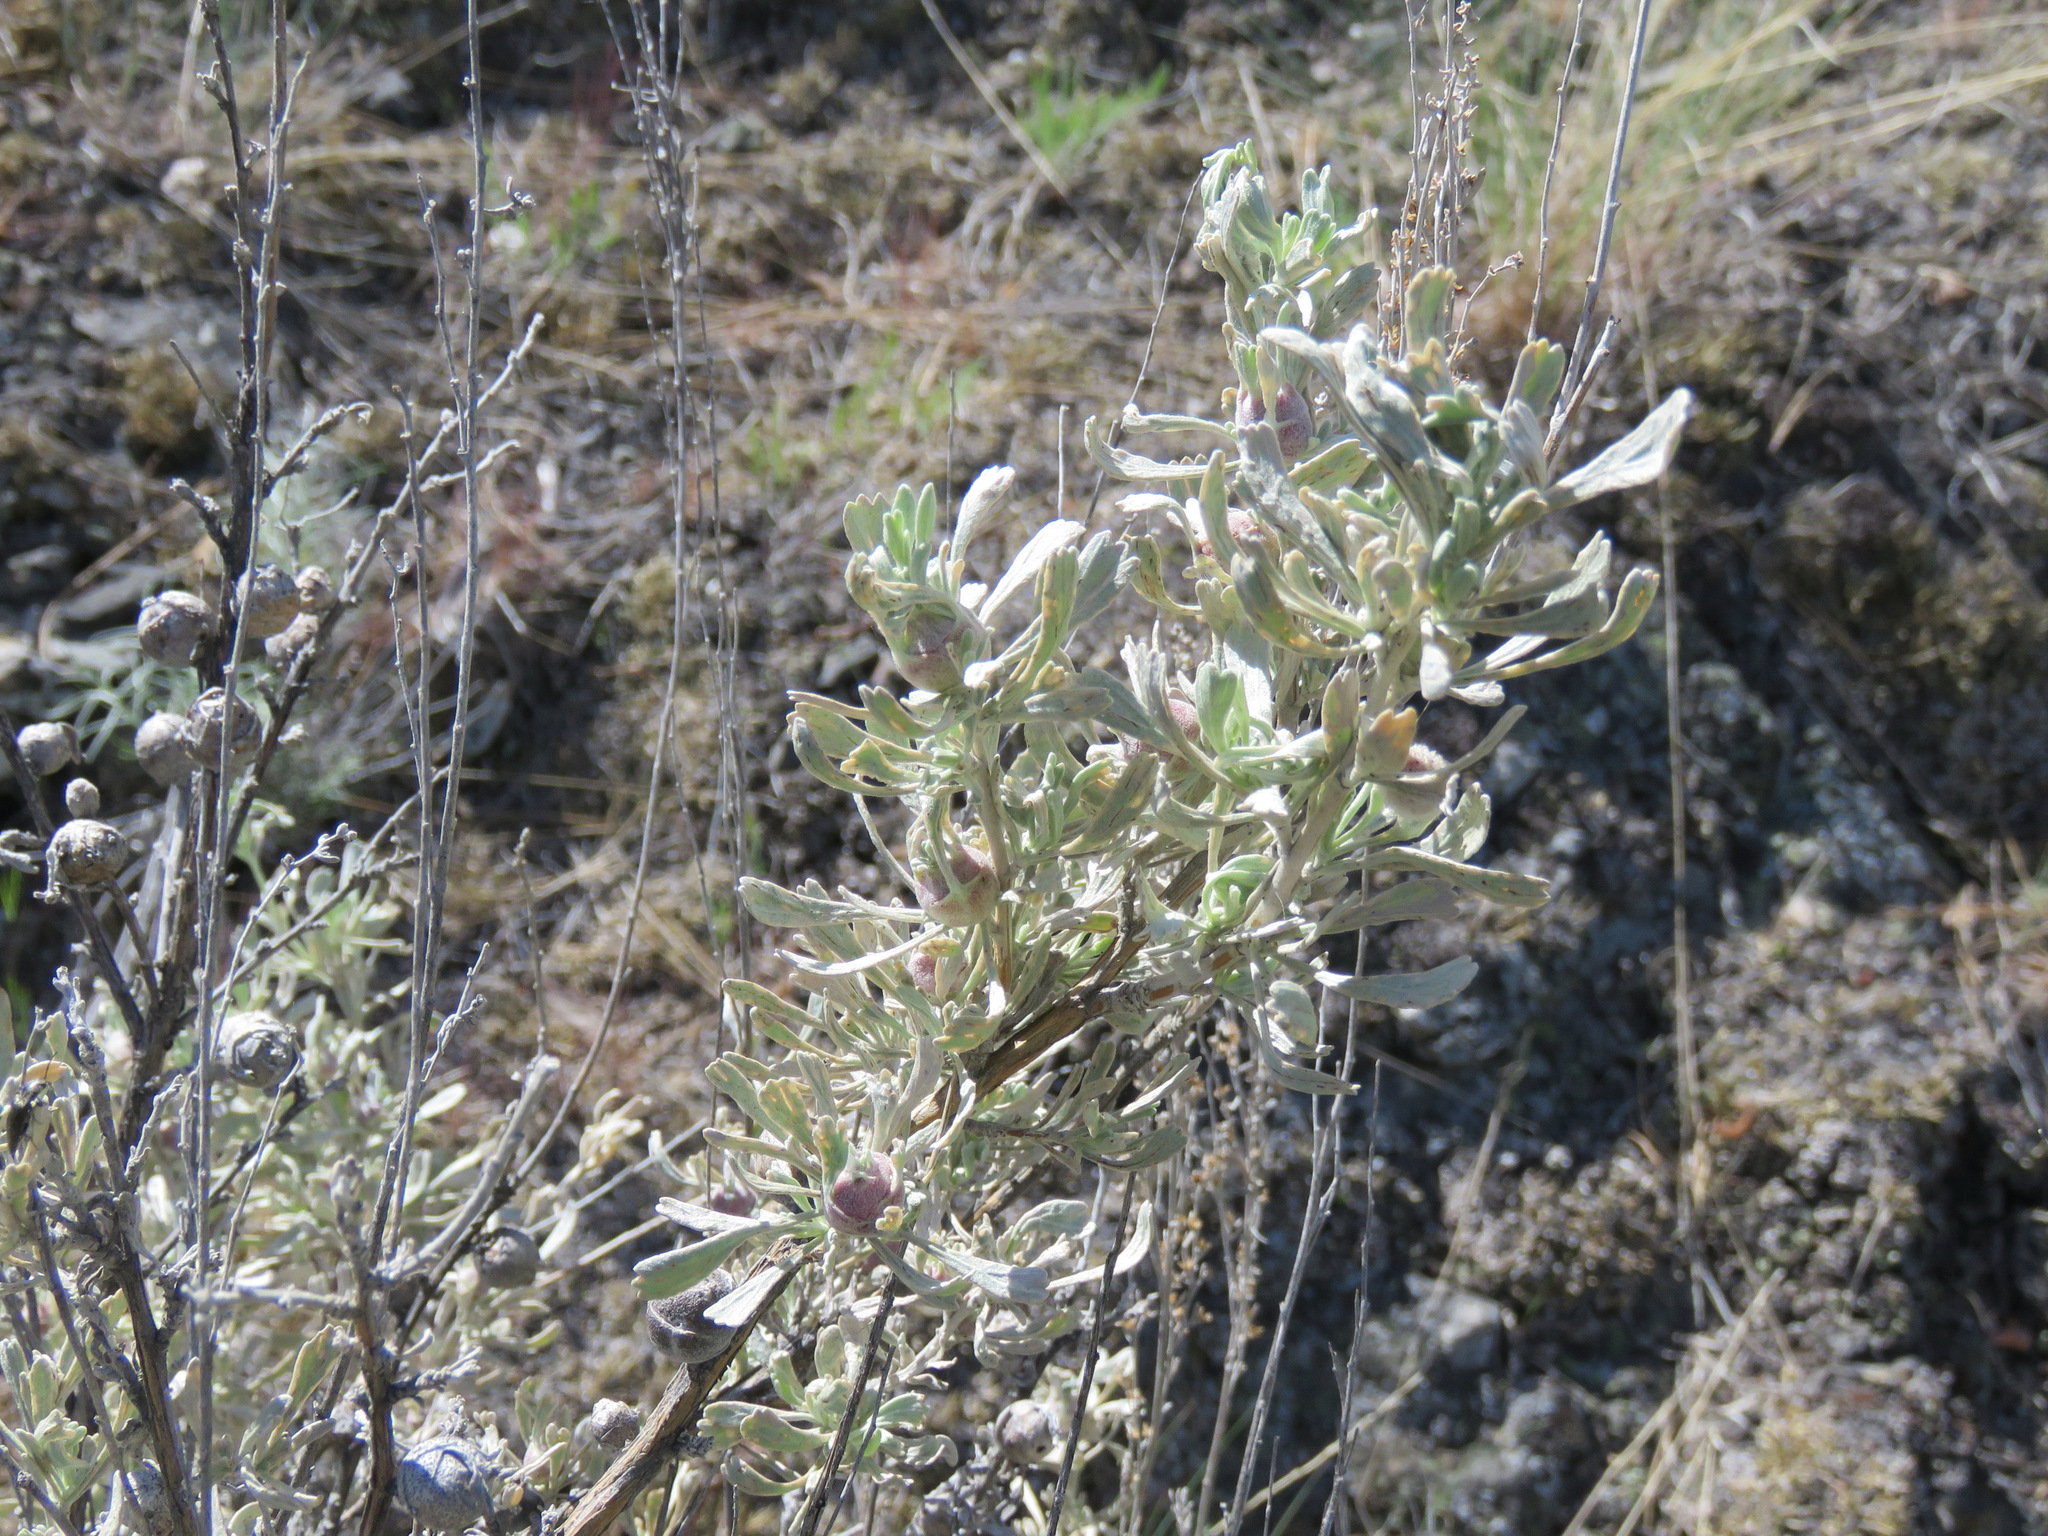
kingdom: Plantae
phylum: Tracheophyta
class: Magnoliopsida
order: Asterales
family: Asteraceae
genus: Artemisia
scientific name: Artemisia tridentata
